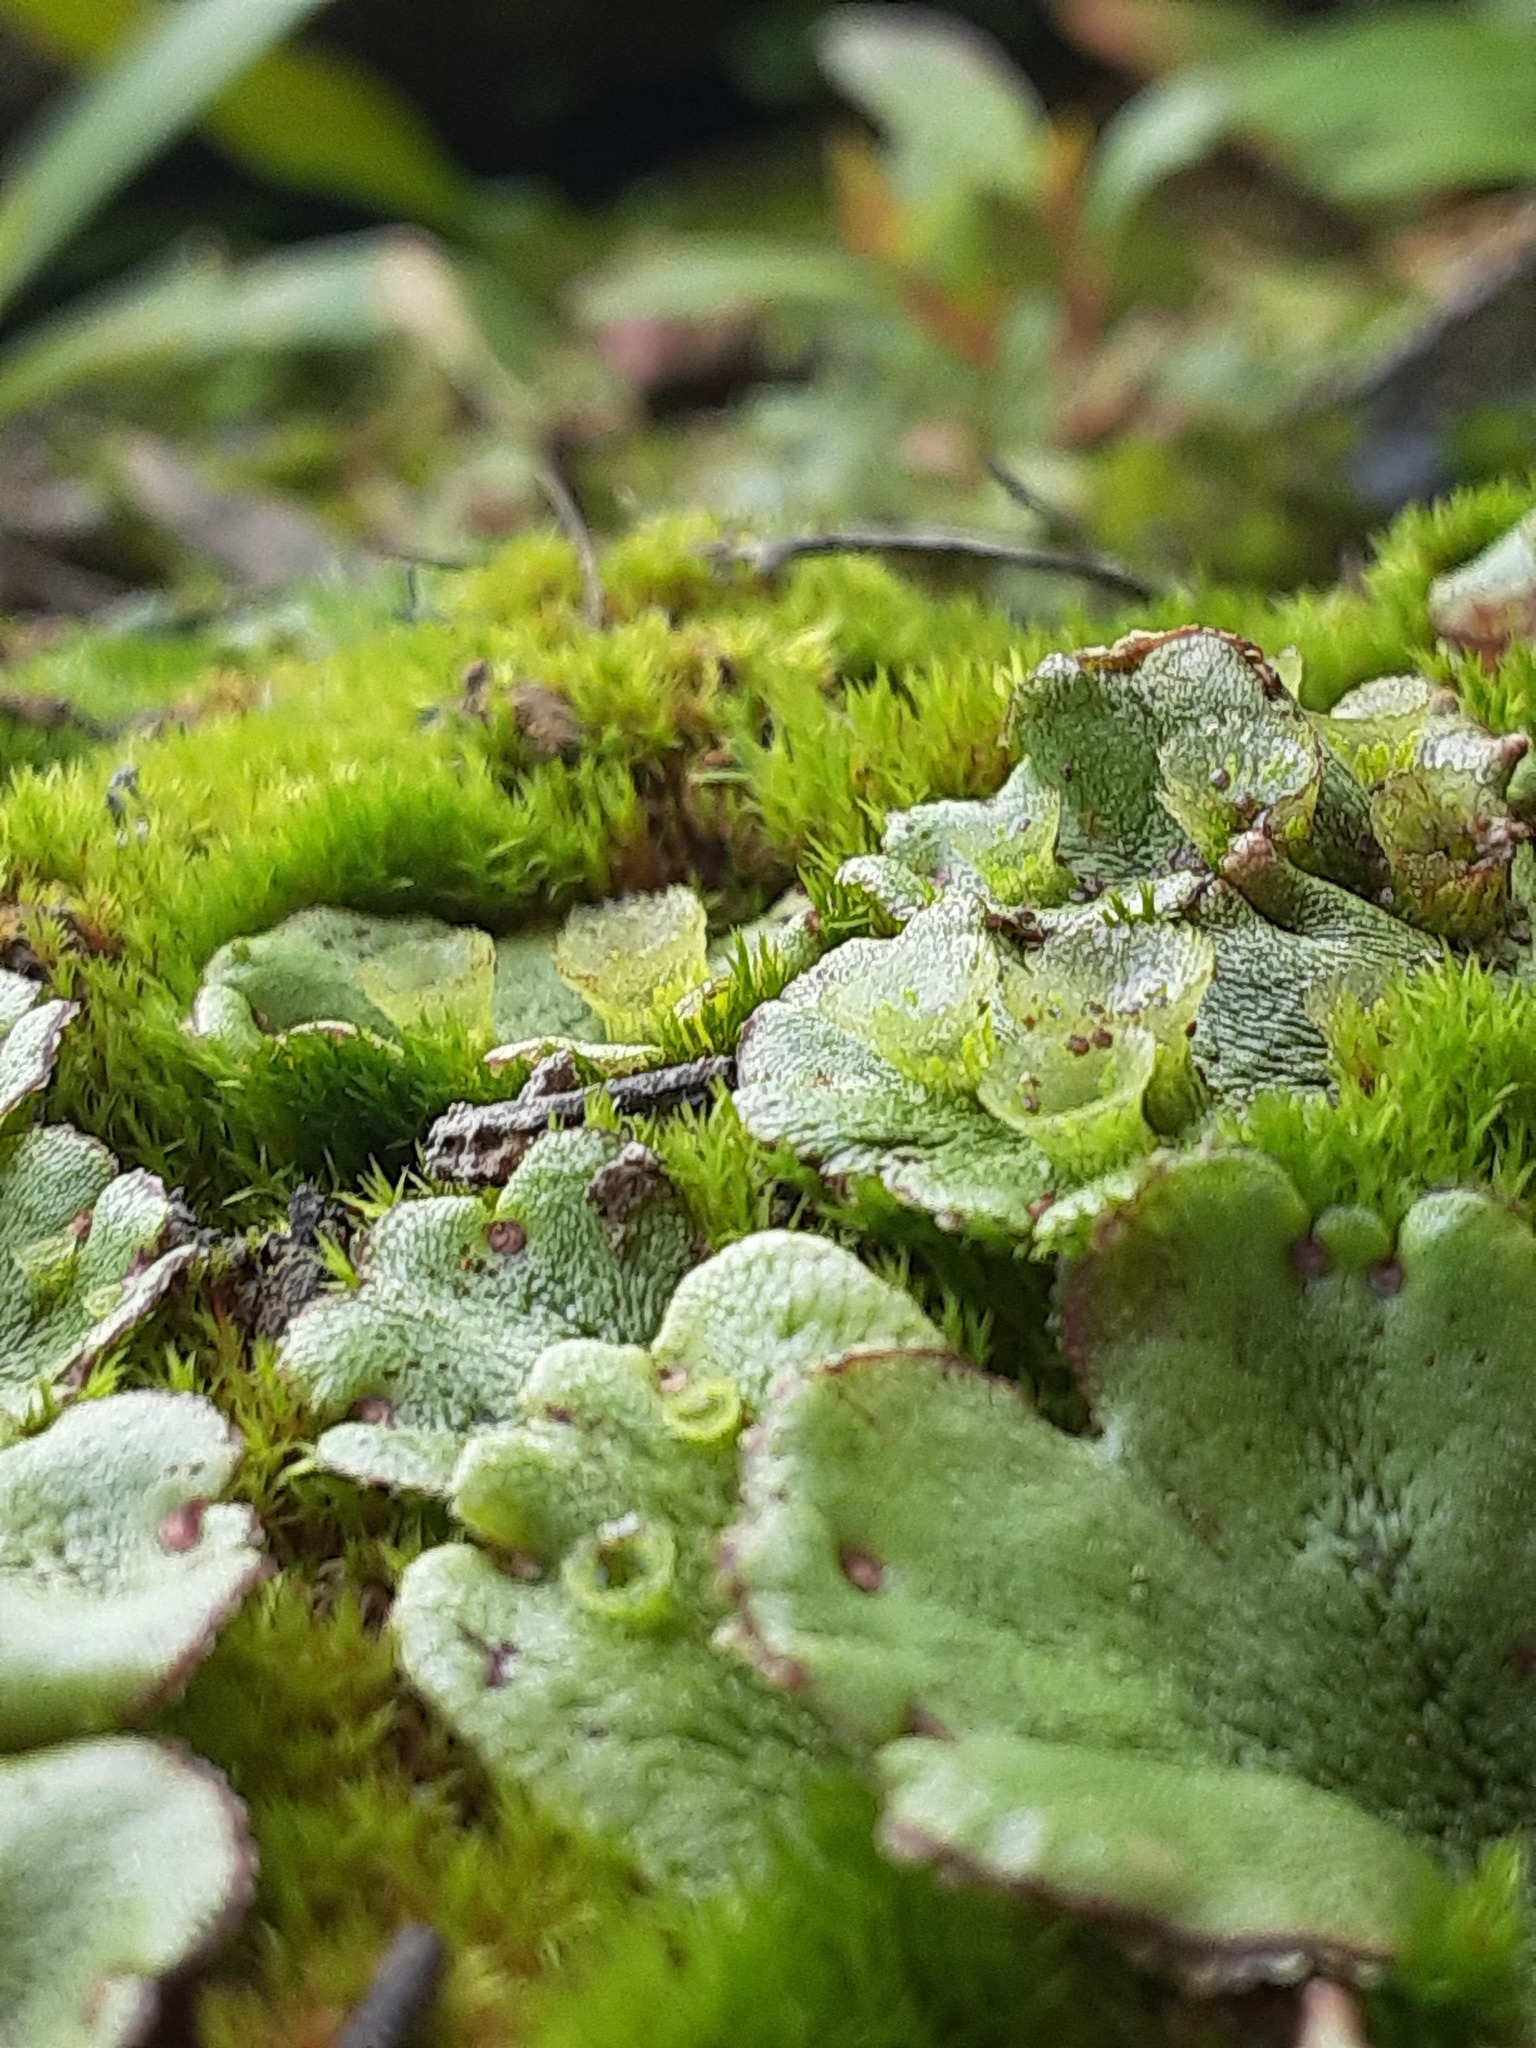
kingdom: Plantae
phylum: Marchantiophyta
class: Marchantiopsida
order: Marchantiales
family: Marchantiaceae
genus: Marchantia
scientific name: Marchantia polymorpha
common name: Common liverwort
